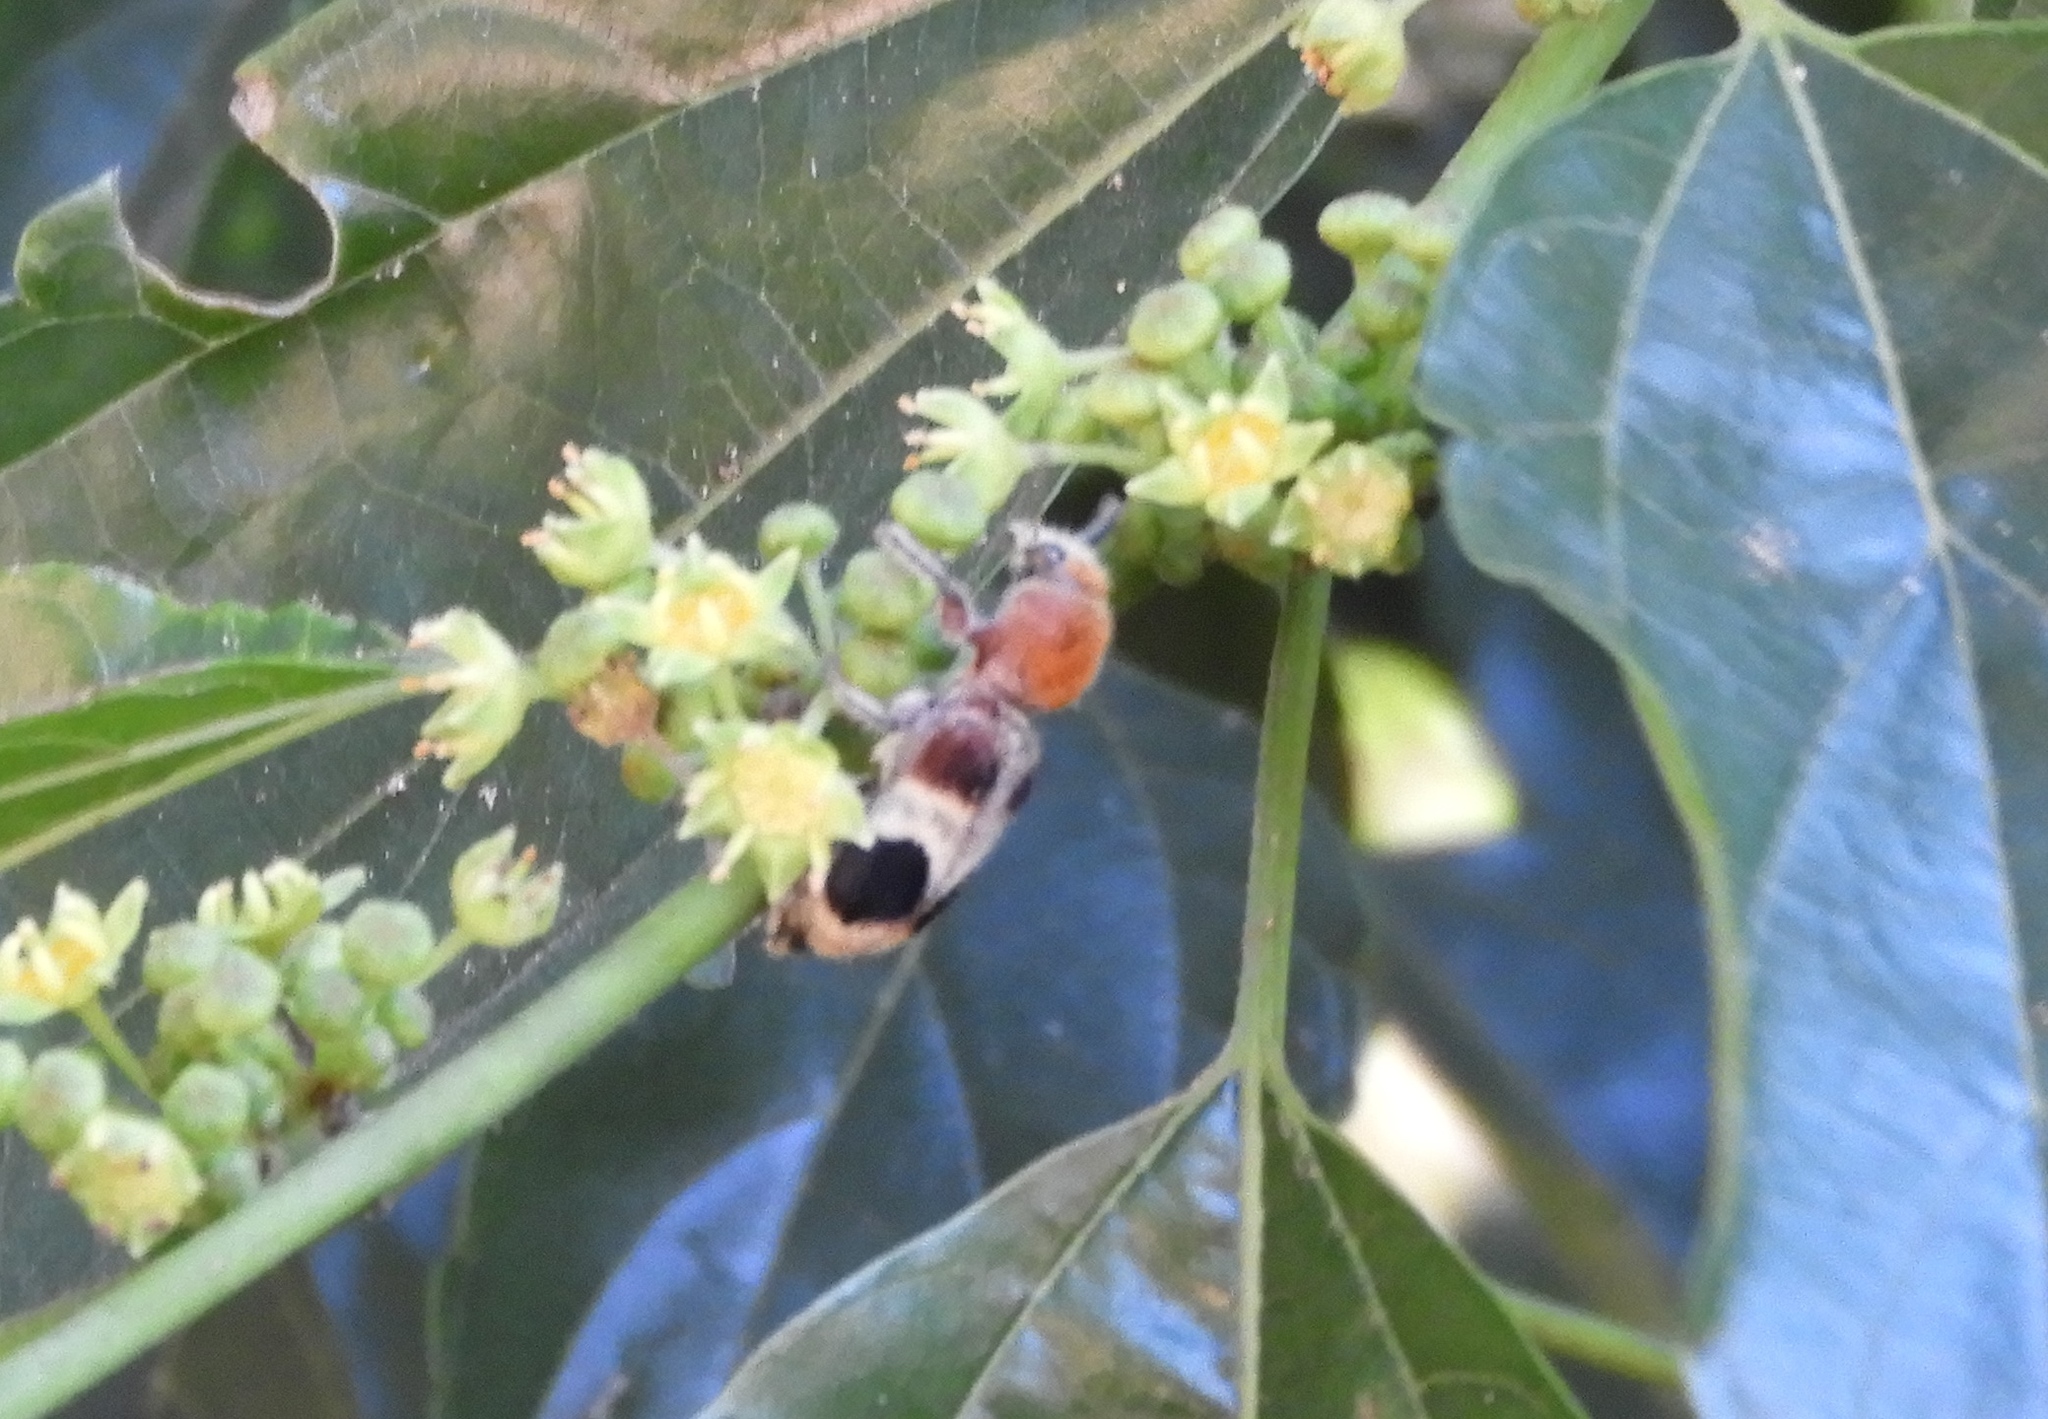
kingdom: Animalia
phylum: Arthropoda
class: Insecta
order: Coleoptera
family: Cleridae
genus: Enoclerus
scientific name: Enoclerus quadriguttatus
